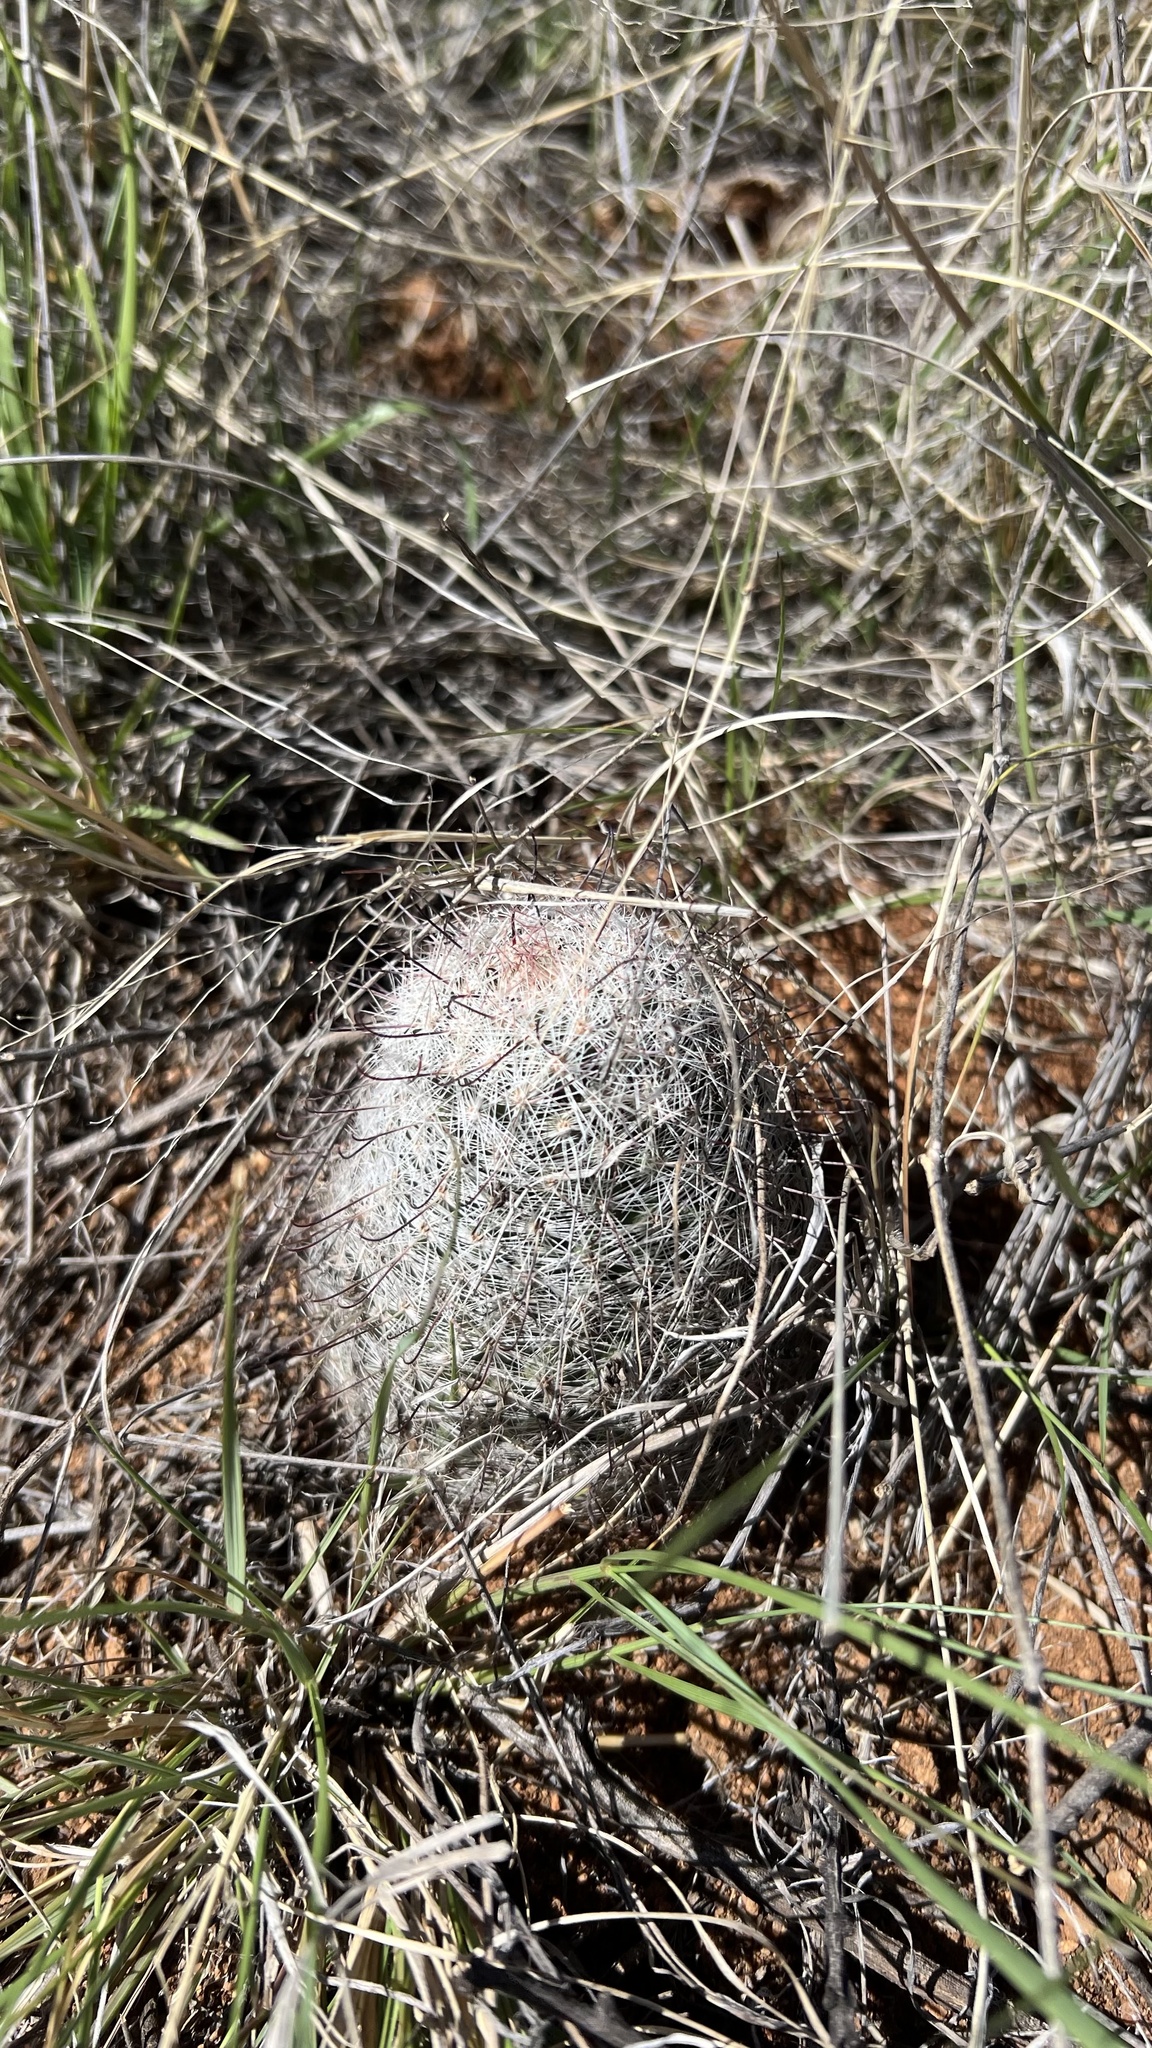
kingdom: Plantae
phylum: Tracheophyta
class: Magnoliopsida
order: Caryophyllales
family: Cactaceae
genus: Cochemiea
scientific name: Cochemiea grahamii
